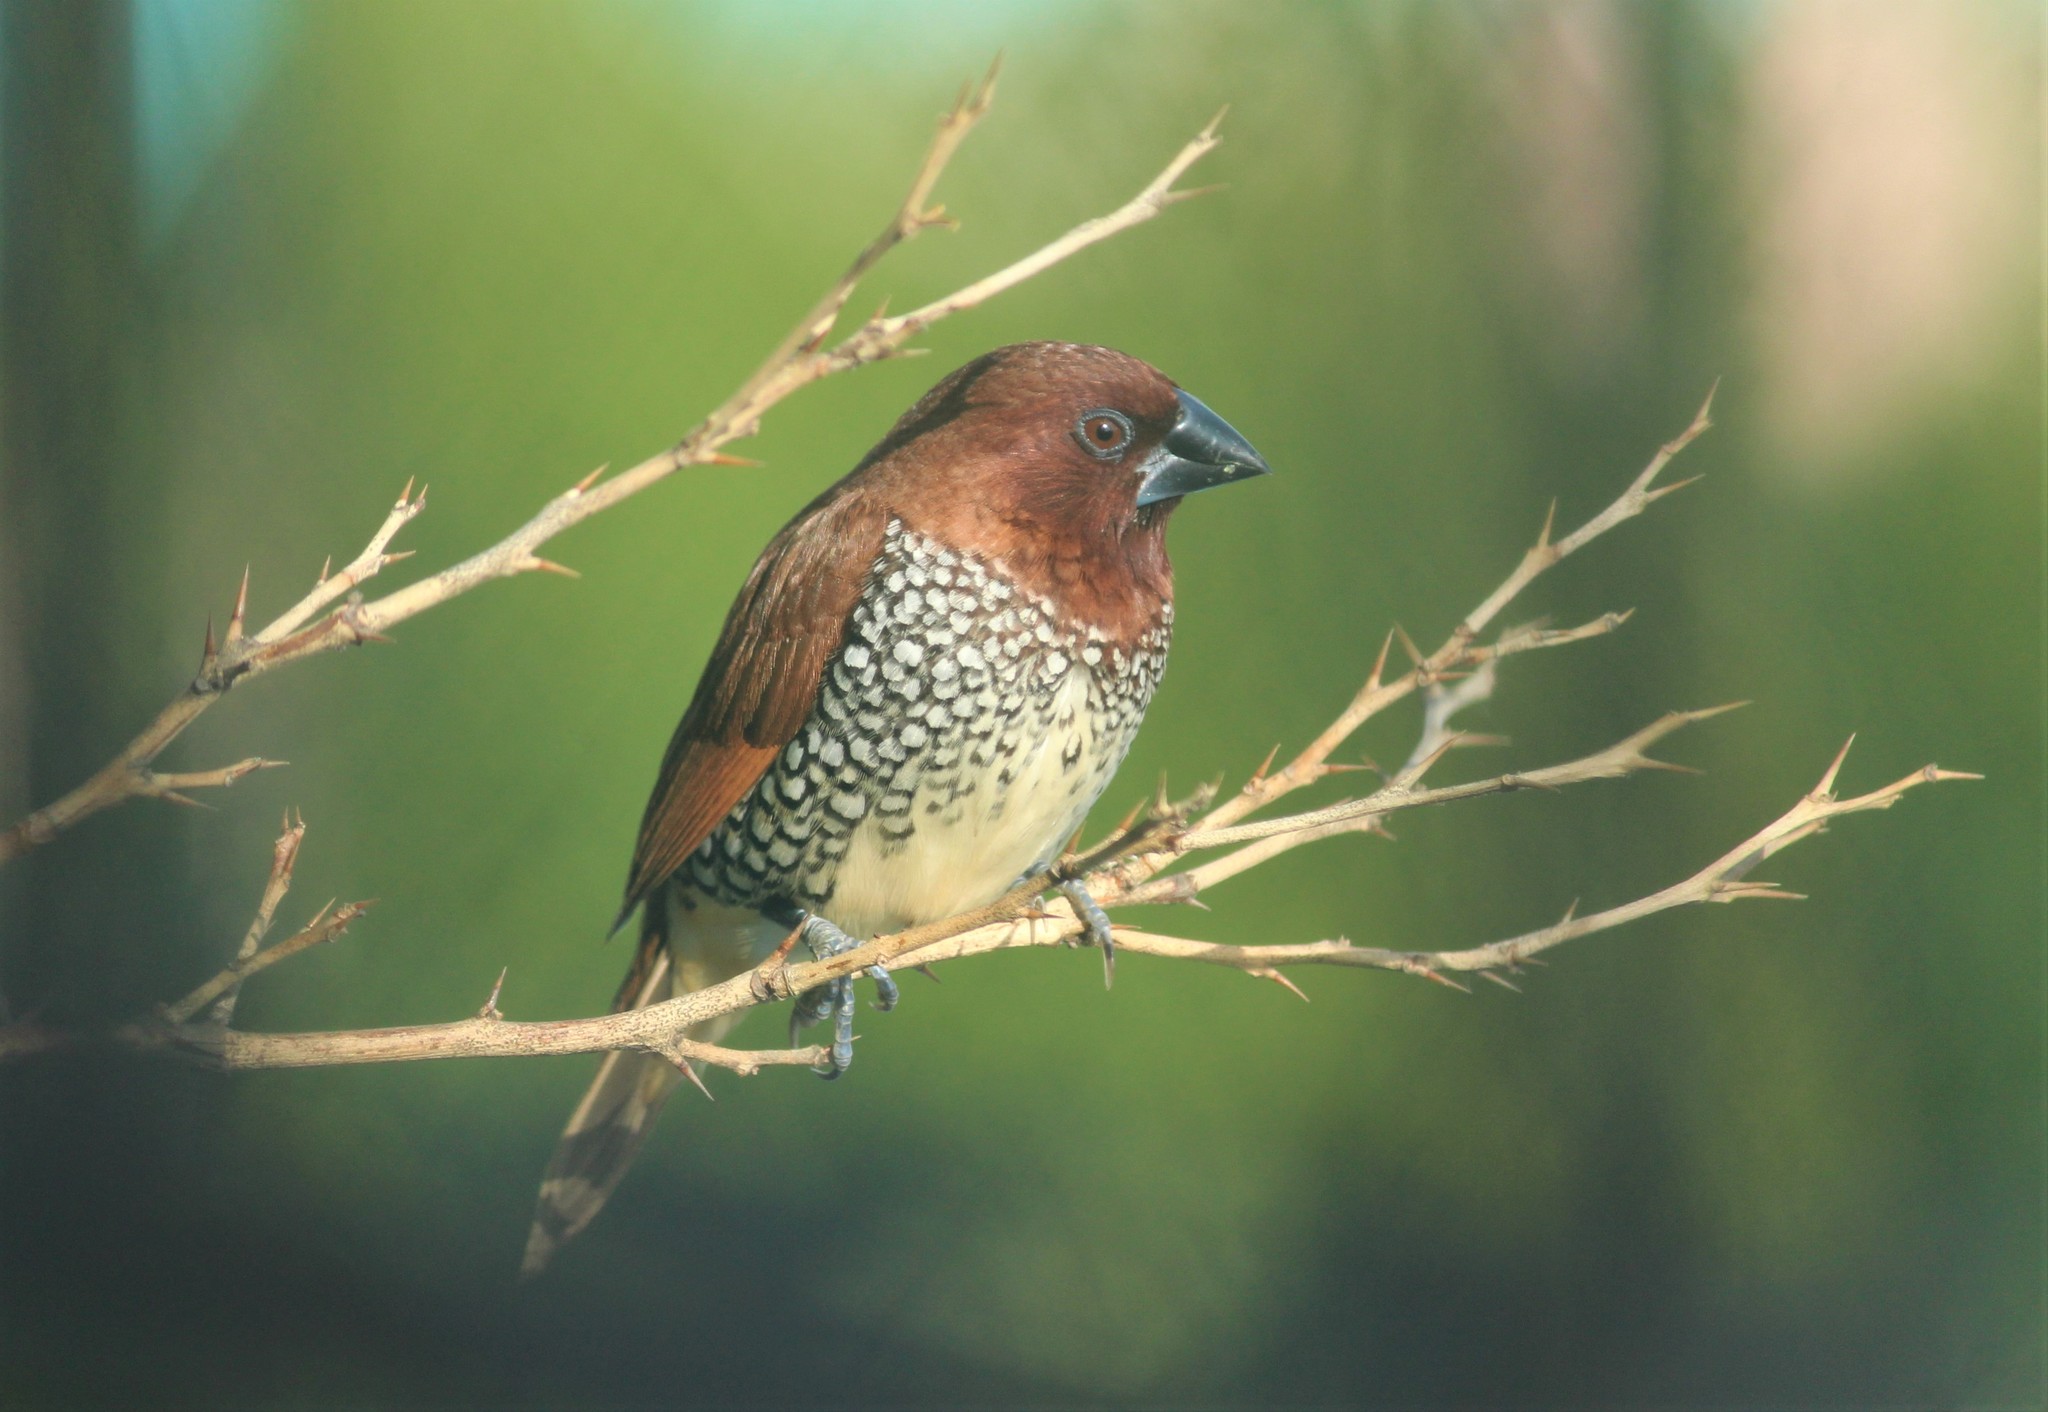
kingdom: Animalia
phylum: Chordata
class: Aves
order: Passeriformes
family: Estrildidae
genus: Lonchura
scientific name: Lonchura punctulata
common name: Scaly-breasted munia
